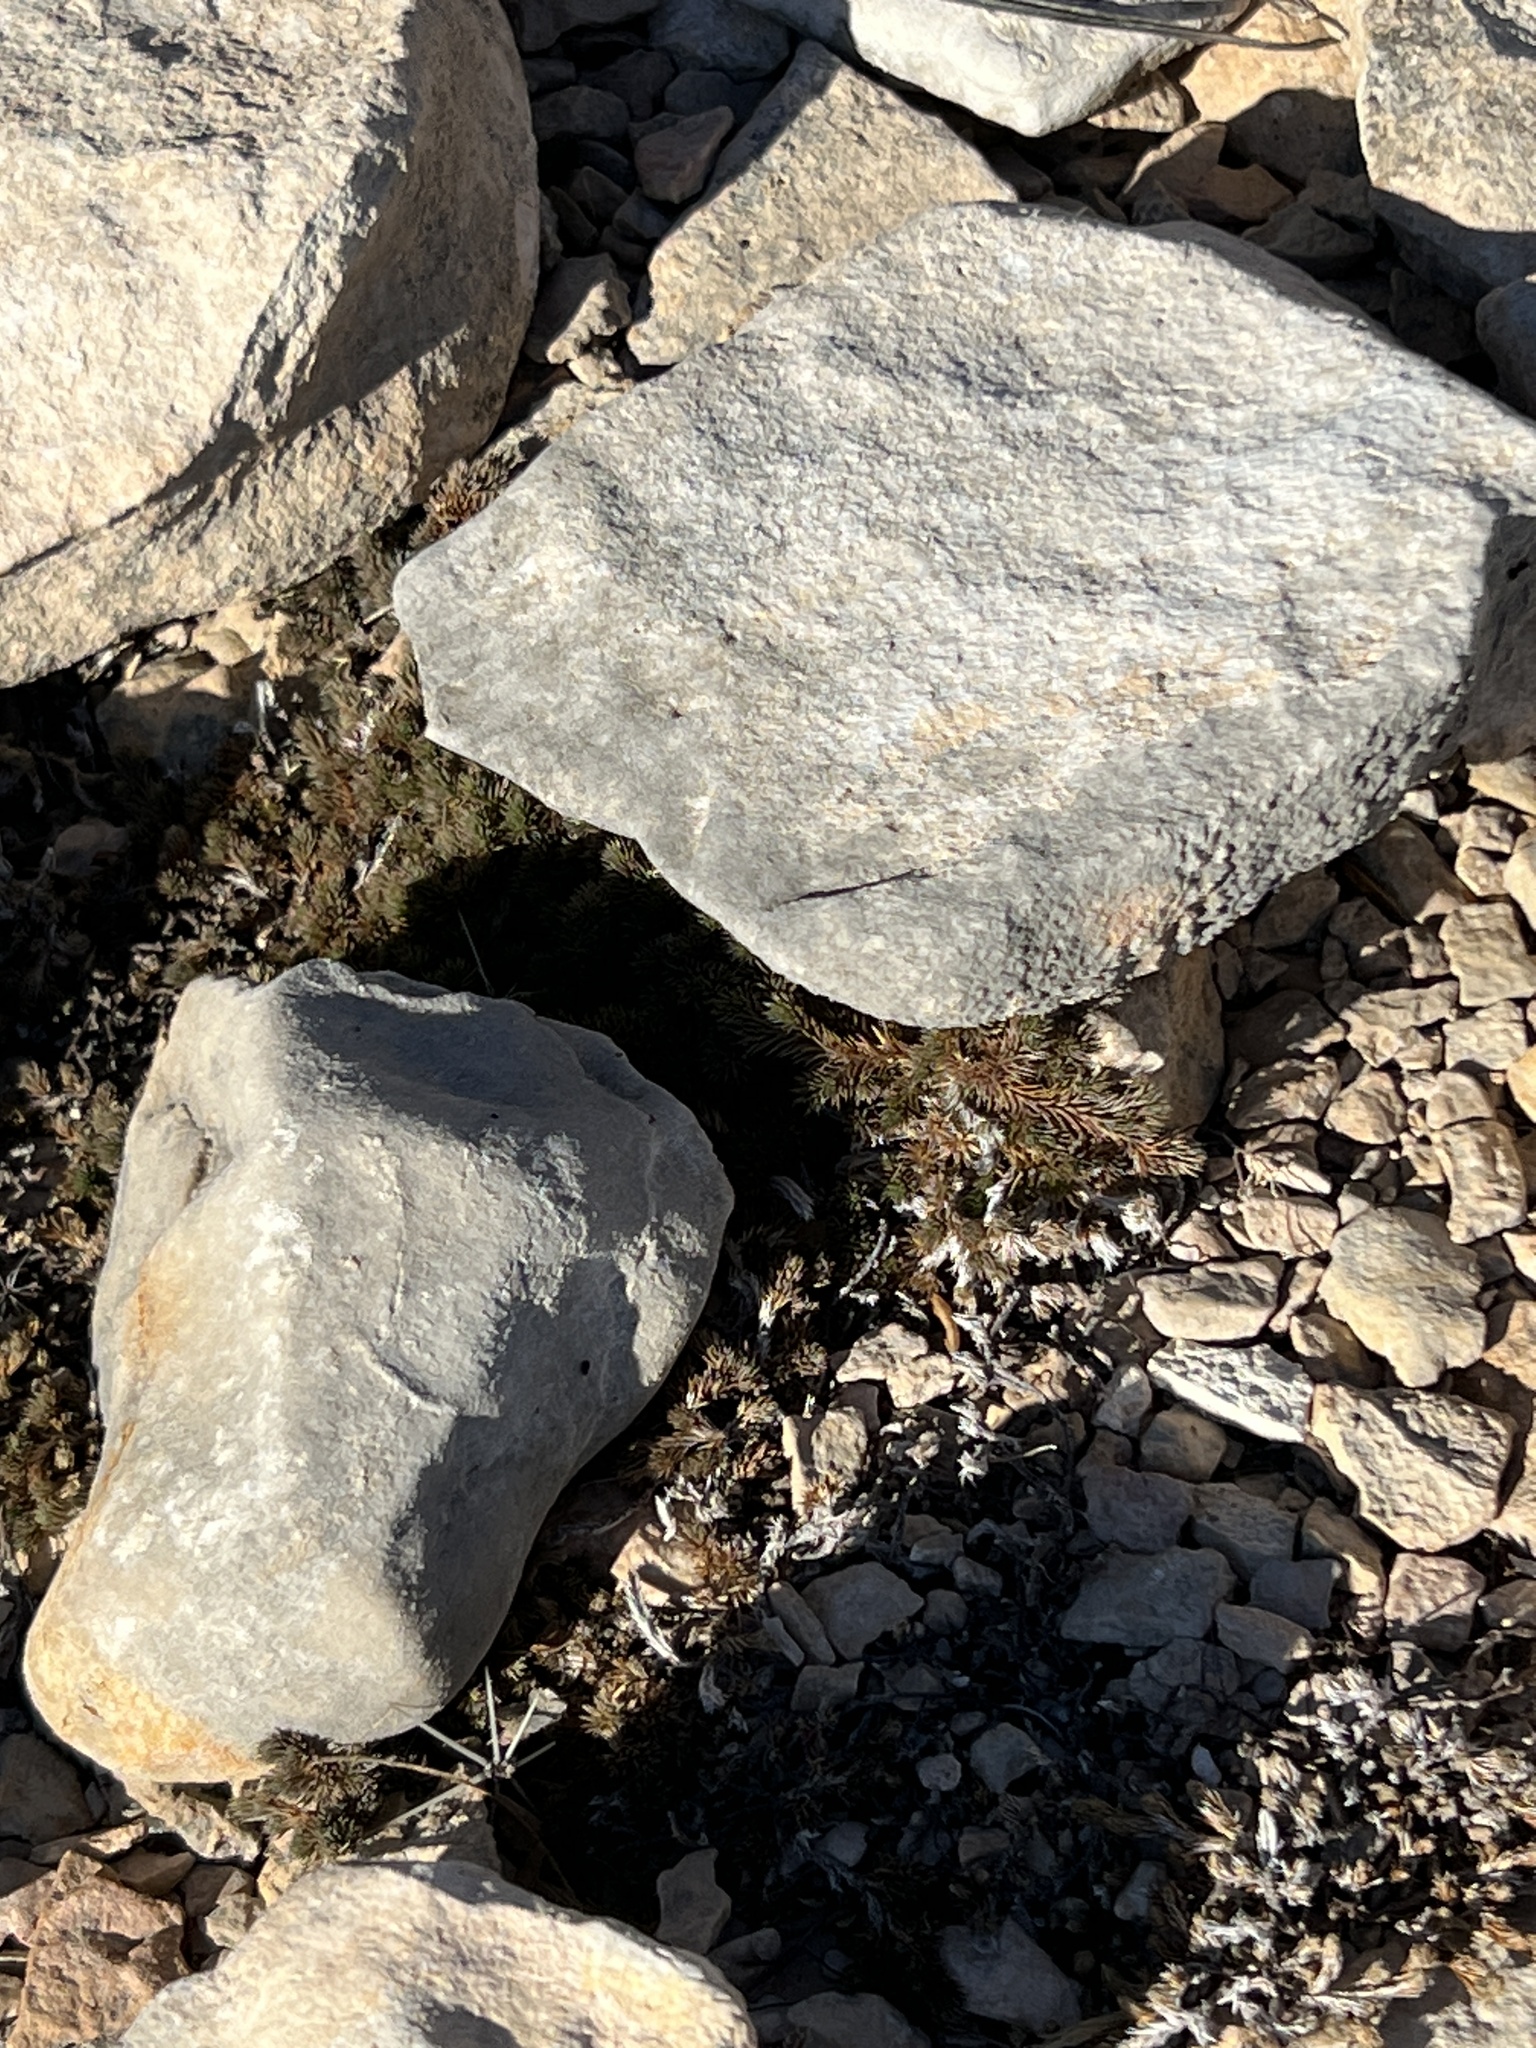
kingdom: Plantae
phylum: Tracheophyta
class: Lycopodiopsida
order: Selaginellales
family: Selaginellaceae
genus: Selaginella
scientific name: Selaginella wrightii
